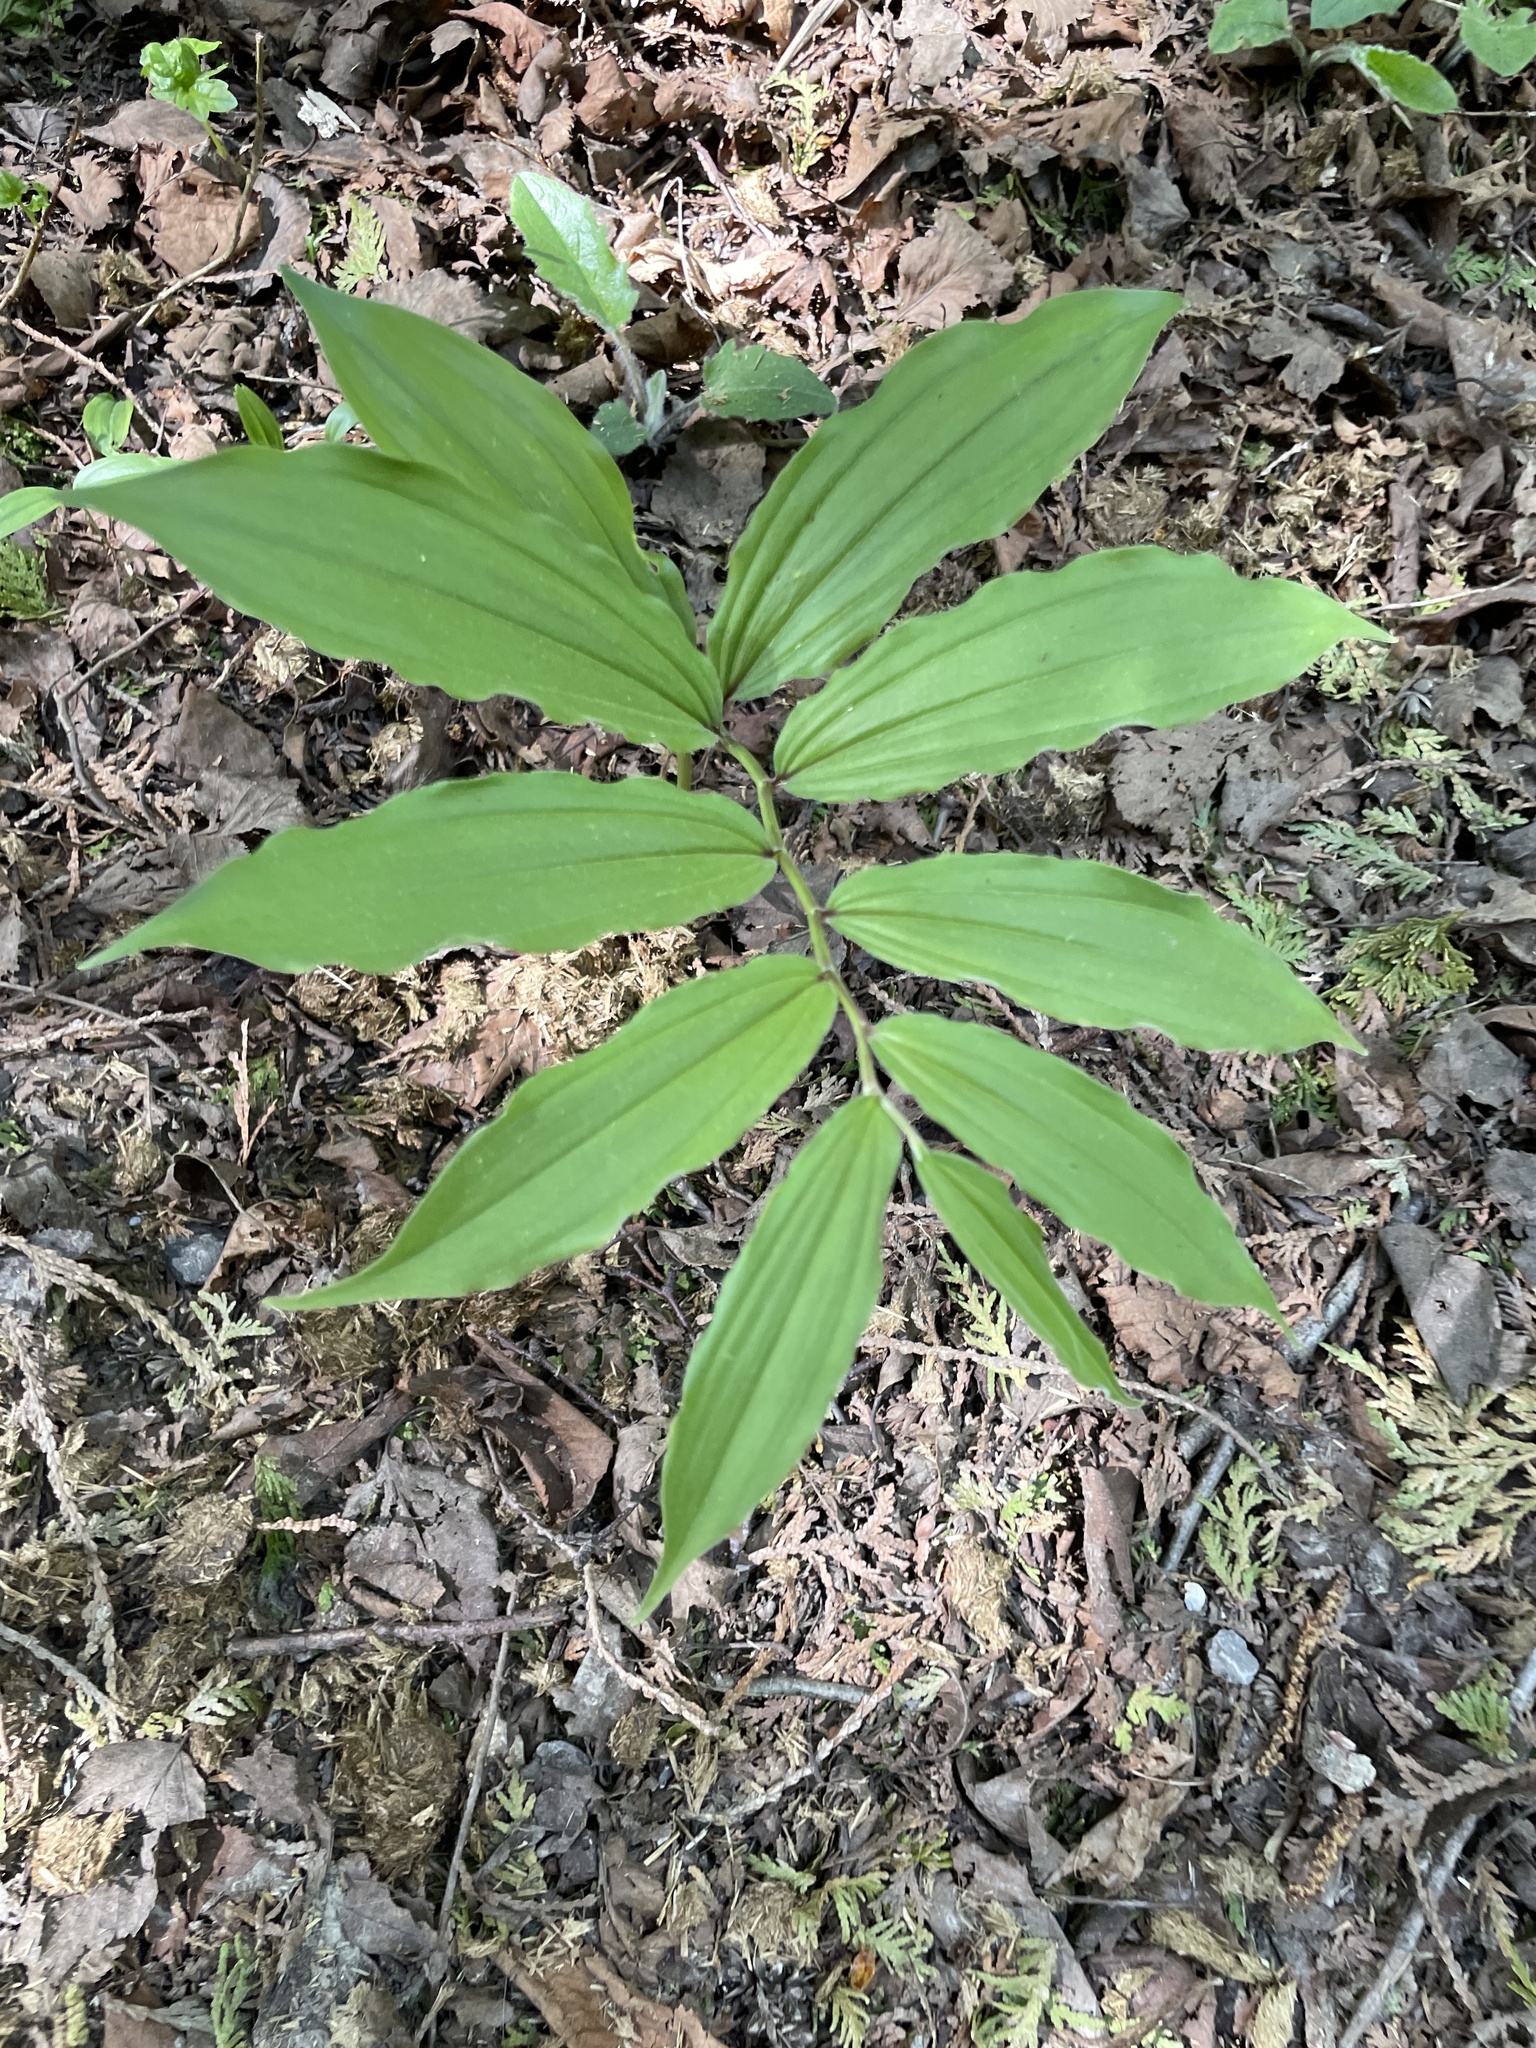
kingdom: Plantae
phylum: Tracheophyta
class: Liliopsida
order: Asparagales
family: Asparagaceae
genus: Maianthemum
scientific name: Maianthemum racemosum
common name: False spikenard
